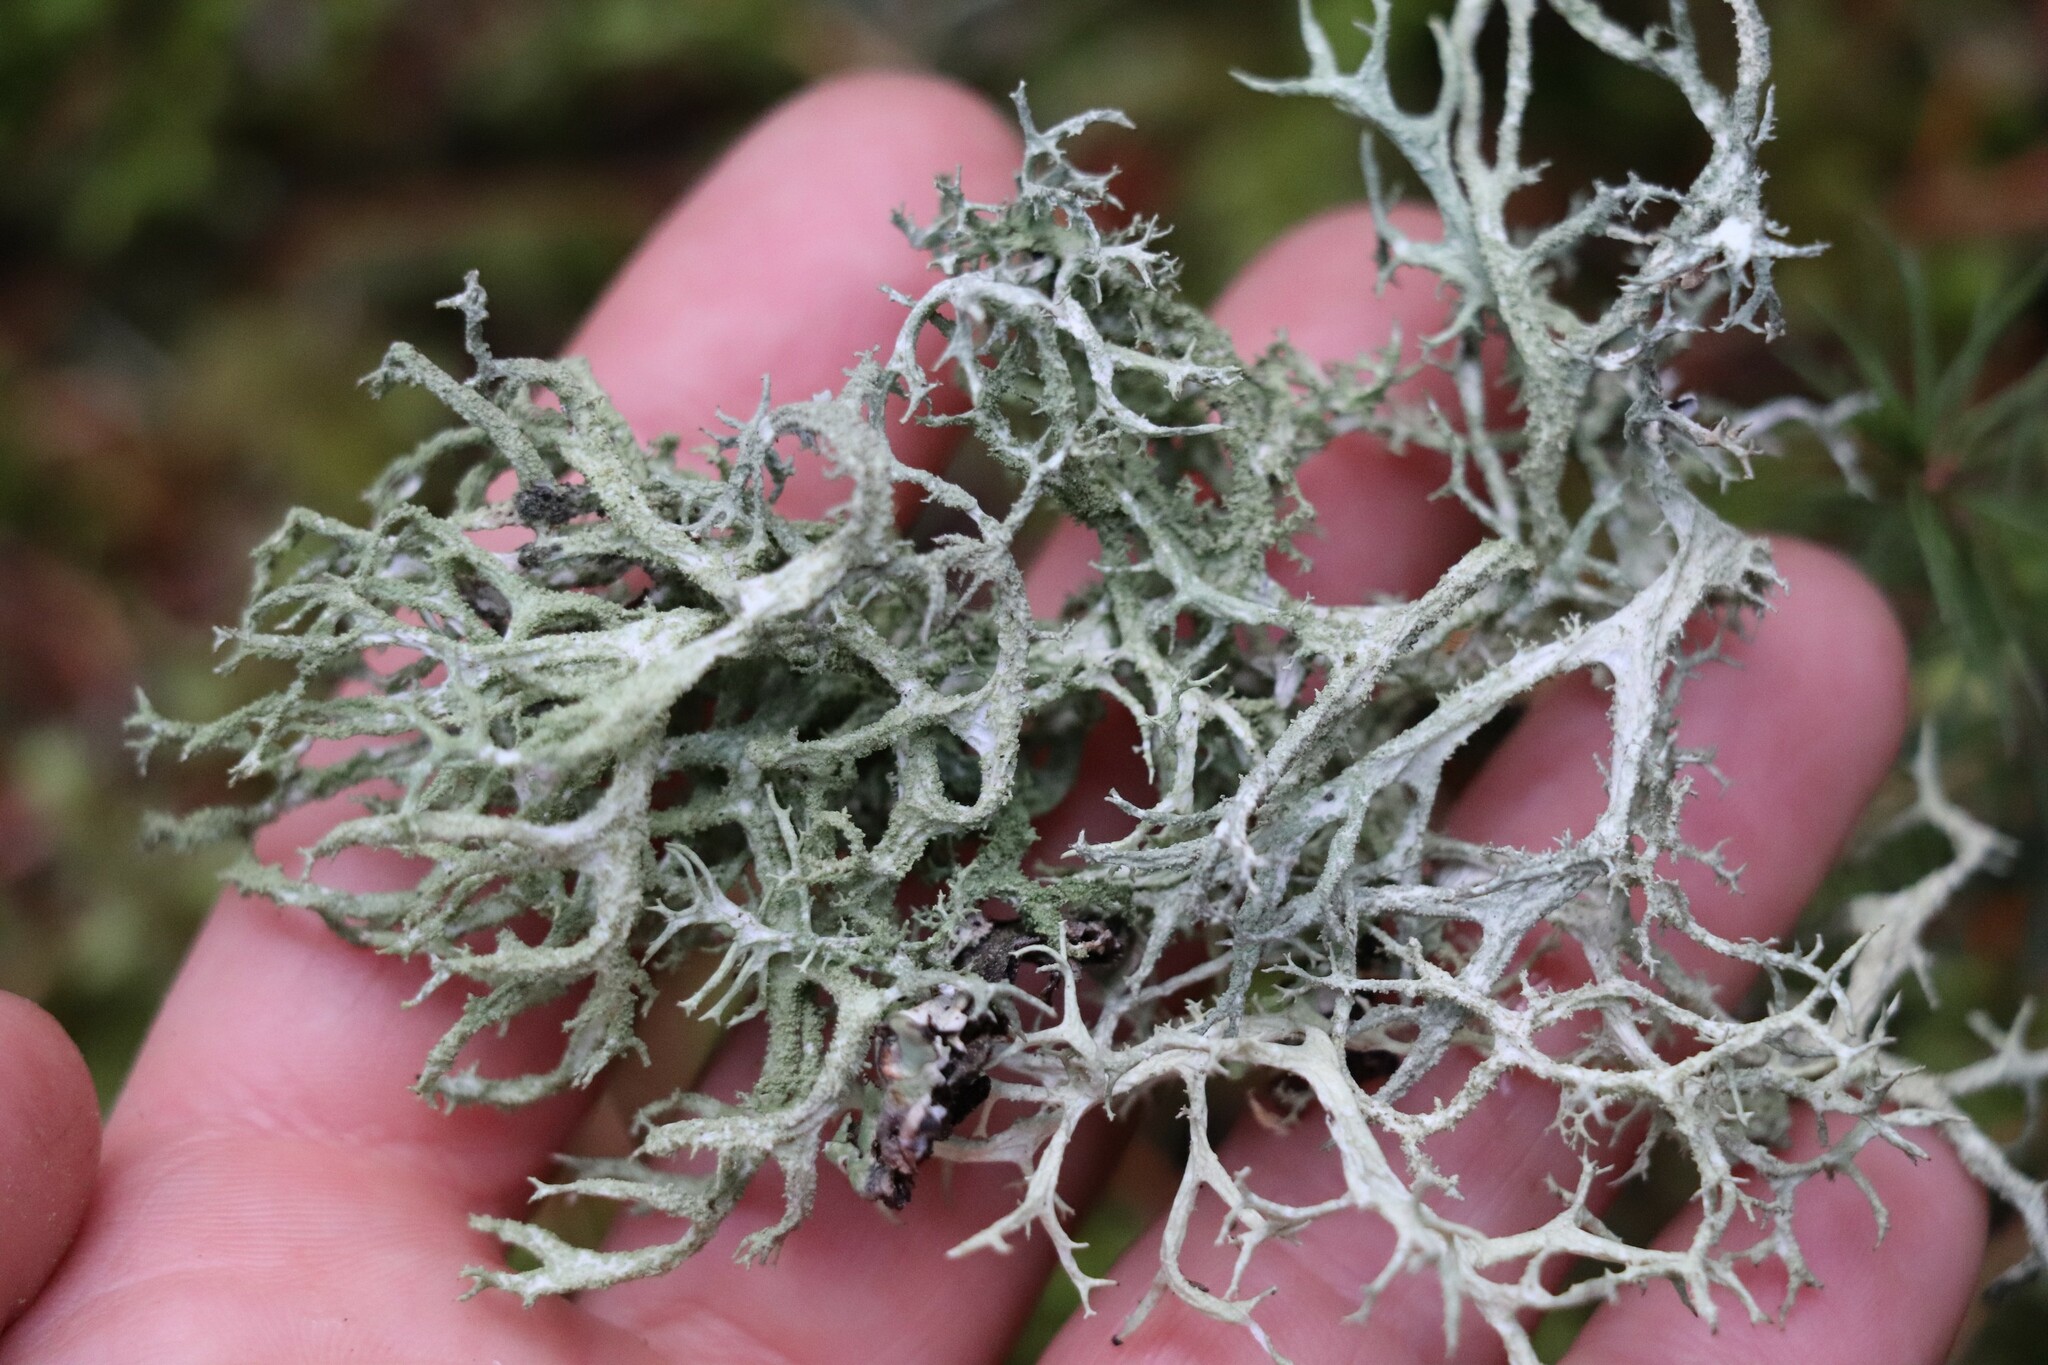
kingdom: Fungi
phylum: Ascomycota
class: Lecanoromycetes
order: Lecanorales
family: Parmeliaceae
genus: Evernia
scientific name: Evernia mesomorpha
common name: Boreal oak moss lichen
